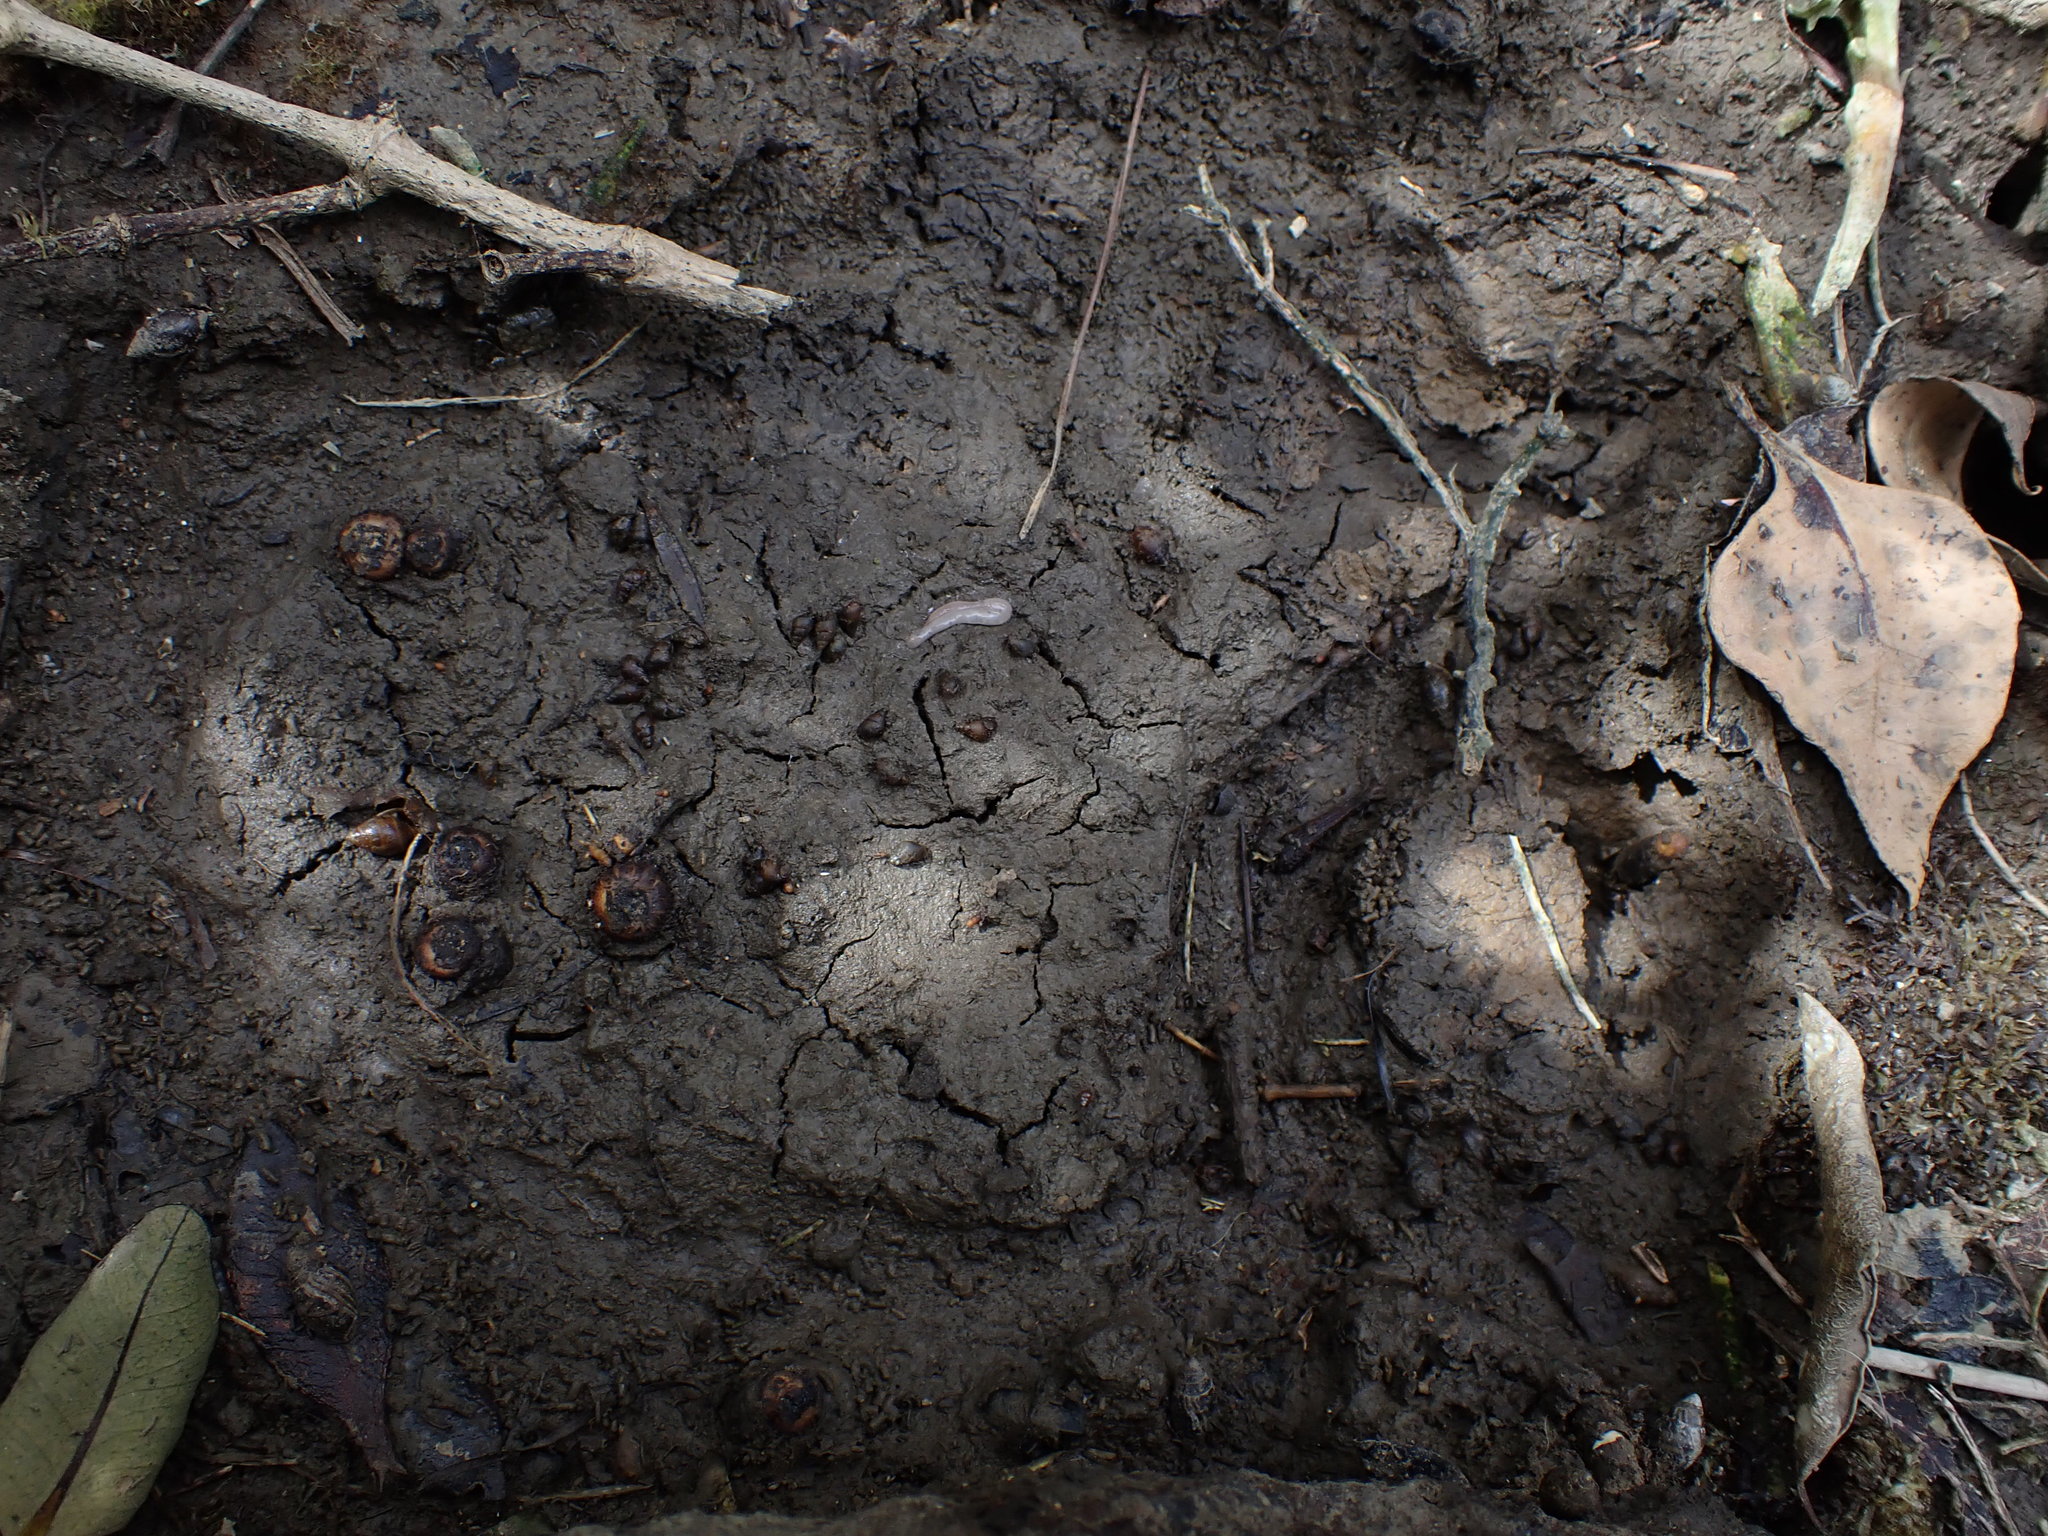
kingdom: Animalia
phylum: Mollusca
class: Gastropoda
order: Littorinimorpha
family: Tateidae
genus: Potamopyrgus
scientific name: Potamopyrgus estuarinus
